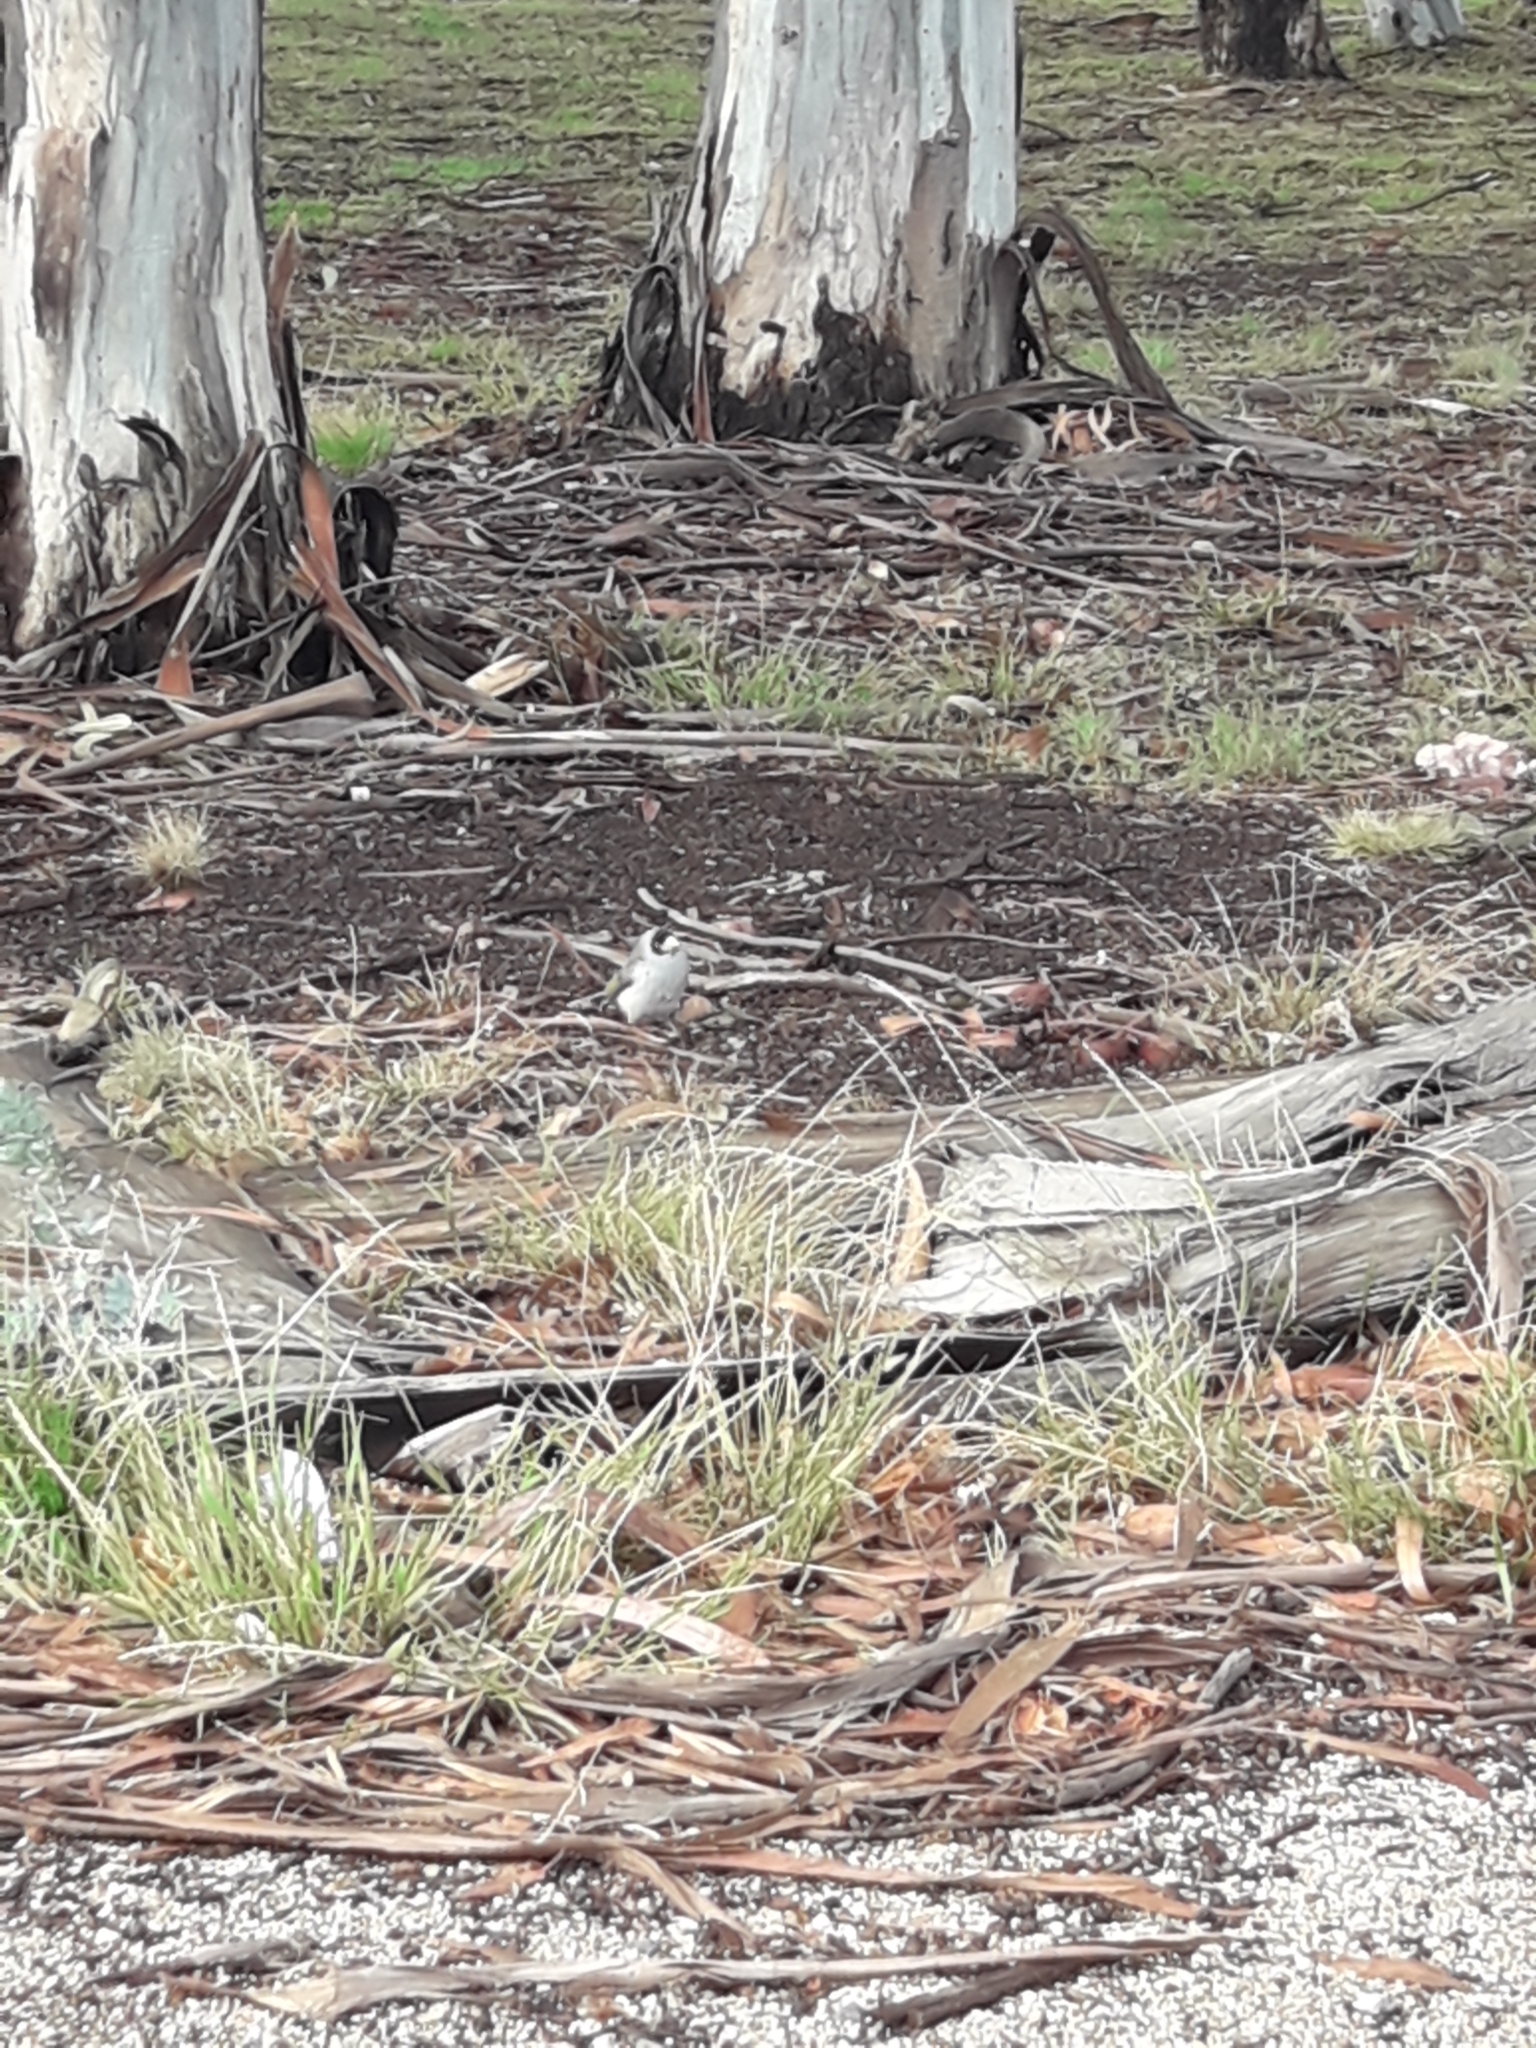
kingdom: Animalia
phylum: Chordata
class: Aves
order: Passeriformes
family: Meliphagidae
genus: Manorina
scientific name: Manorina melanocephala
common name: Noisy miner
